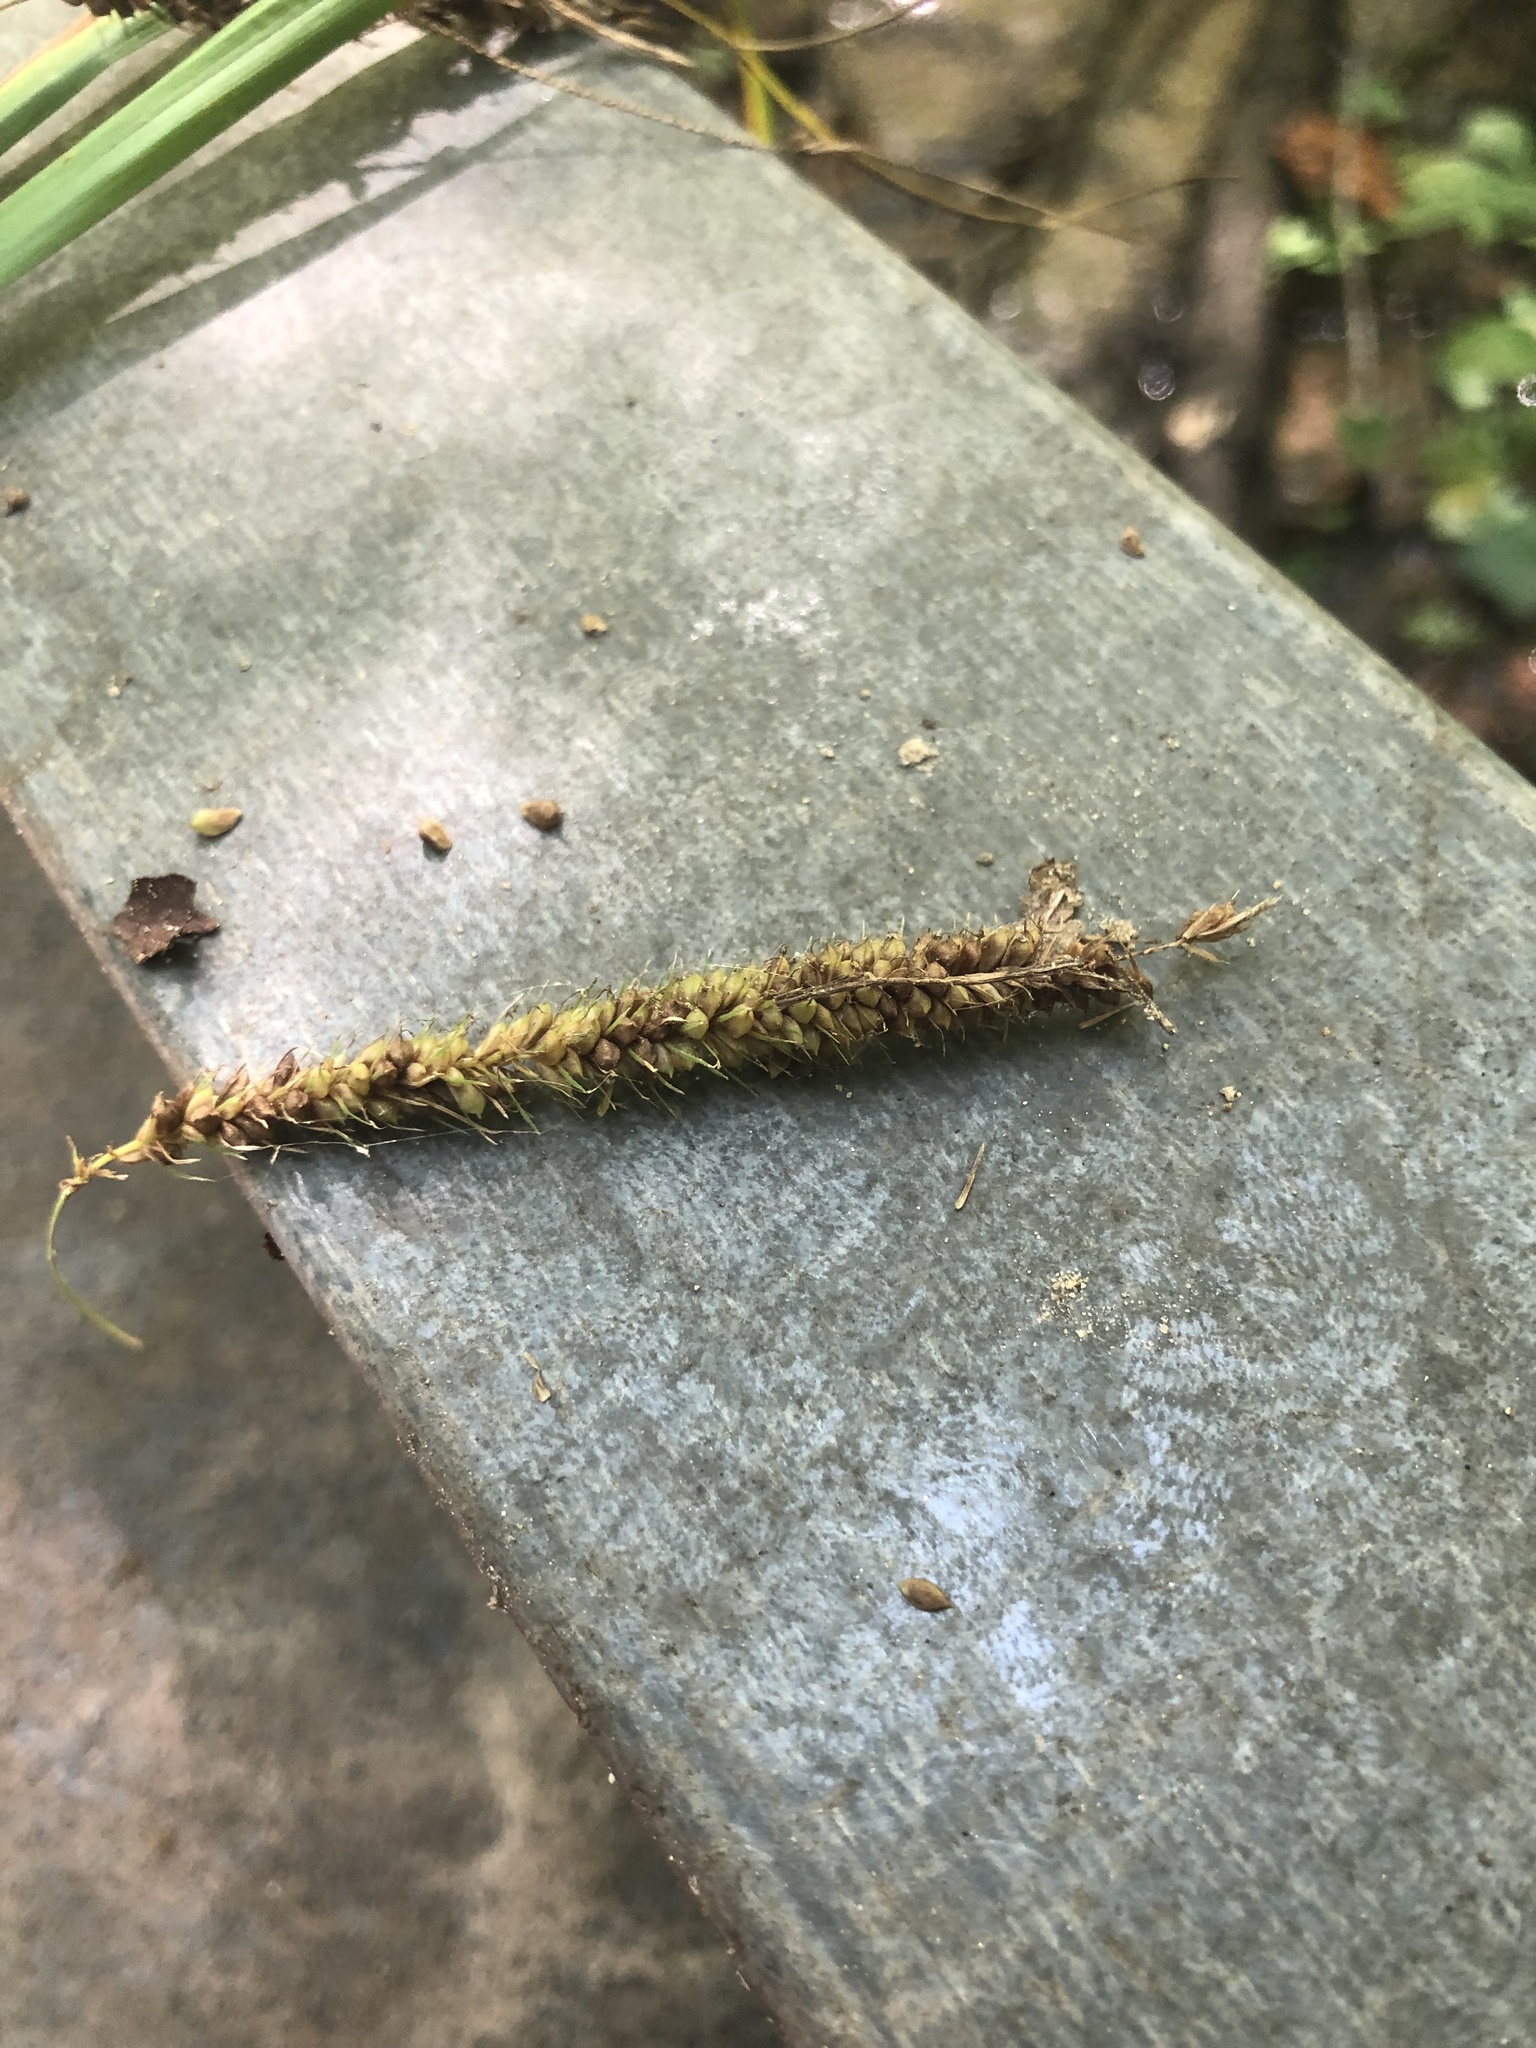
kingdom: Plantae
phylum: Tracheophyta
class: Liliopsida
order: Poales
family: Cyperaceae
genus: Carex
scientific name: Carex crinita
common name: Fringed sedge
